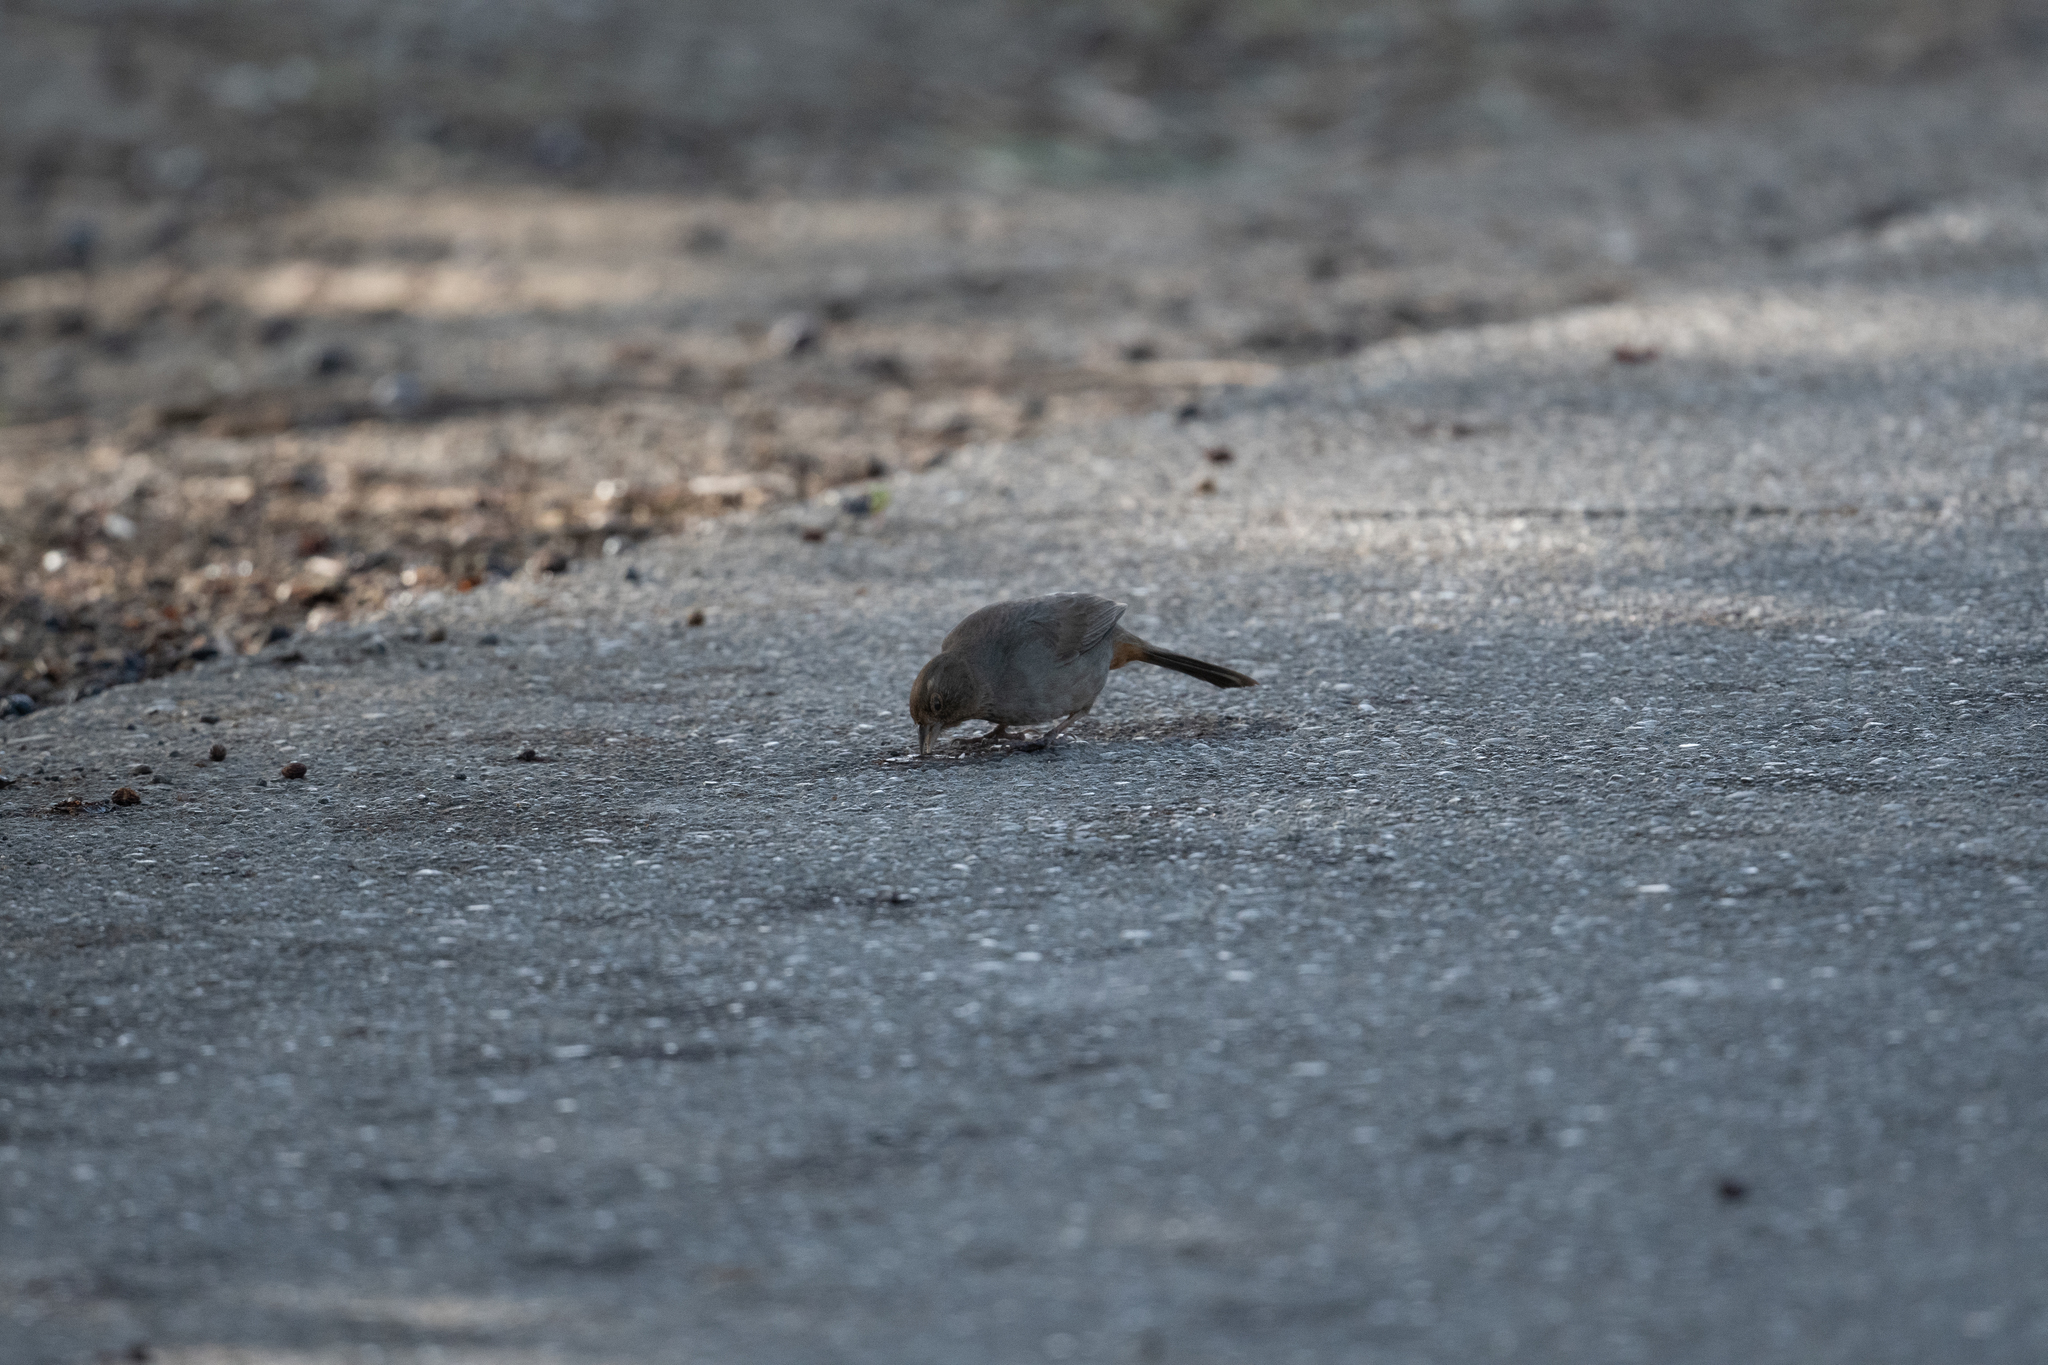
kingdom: Animalia
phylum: Chordata
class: Aves
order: Passeriformes
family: Passerellidae
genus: Melozone
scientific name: Melozone crissalis
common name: California towhee
